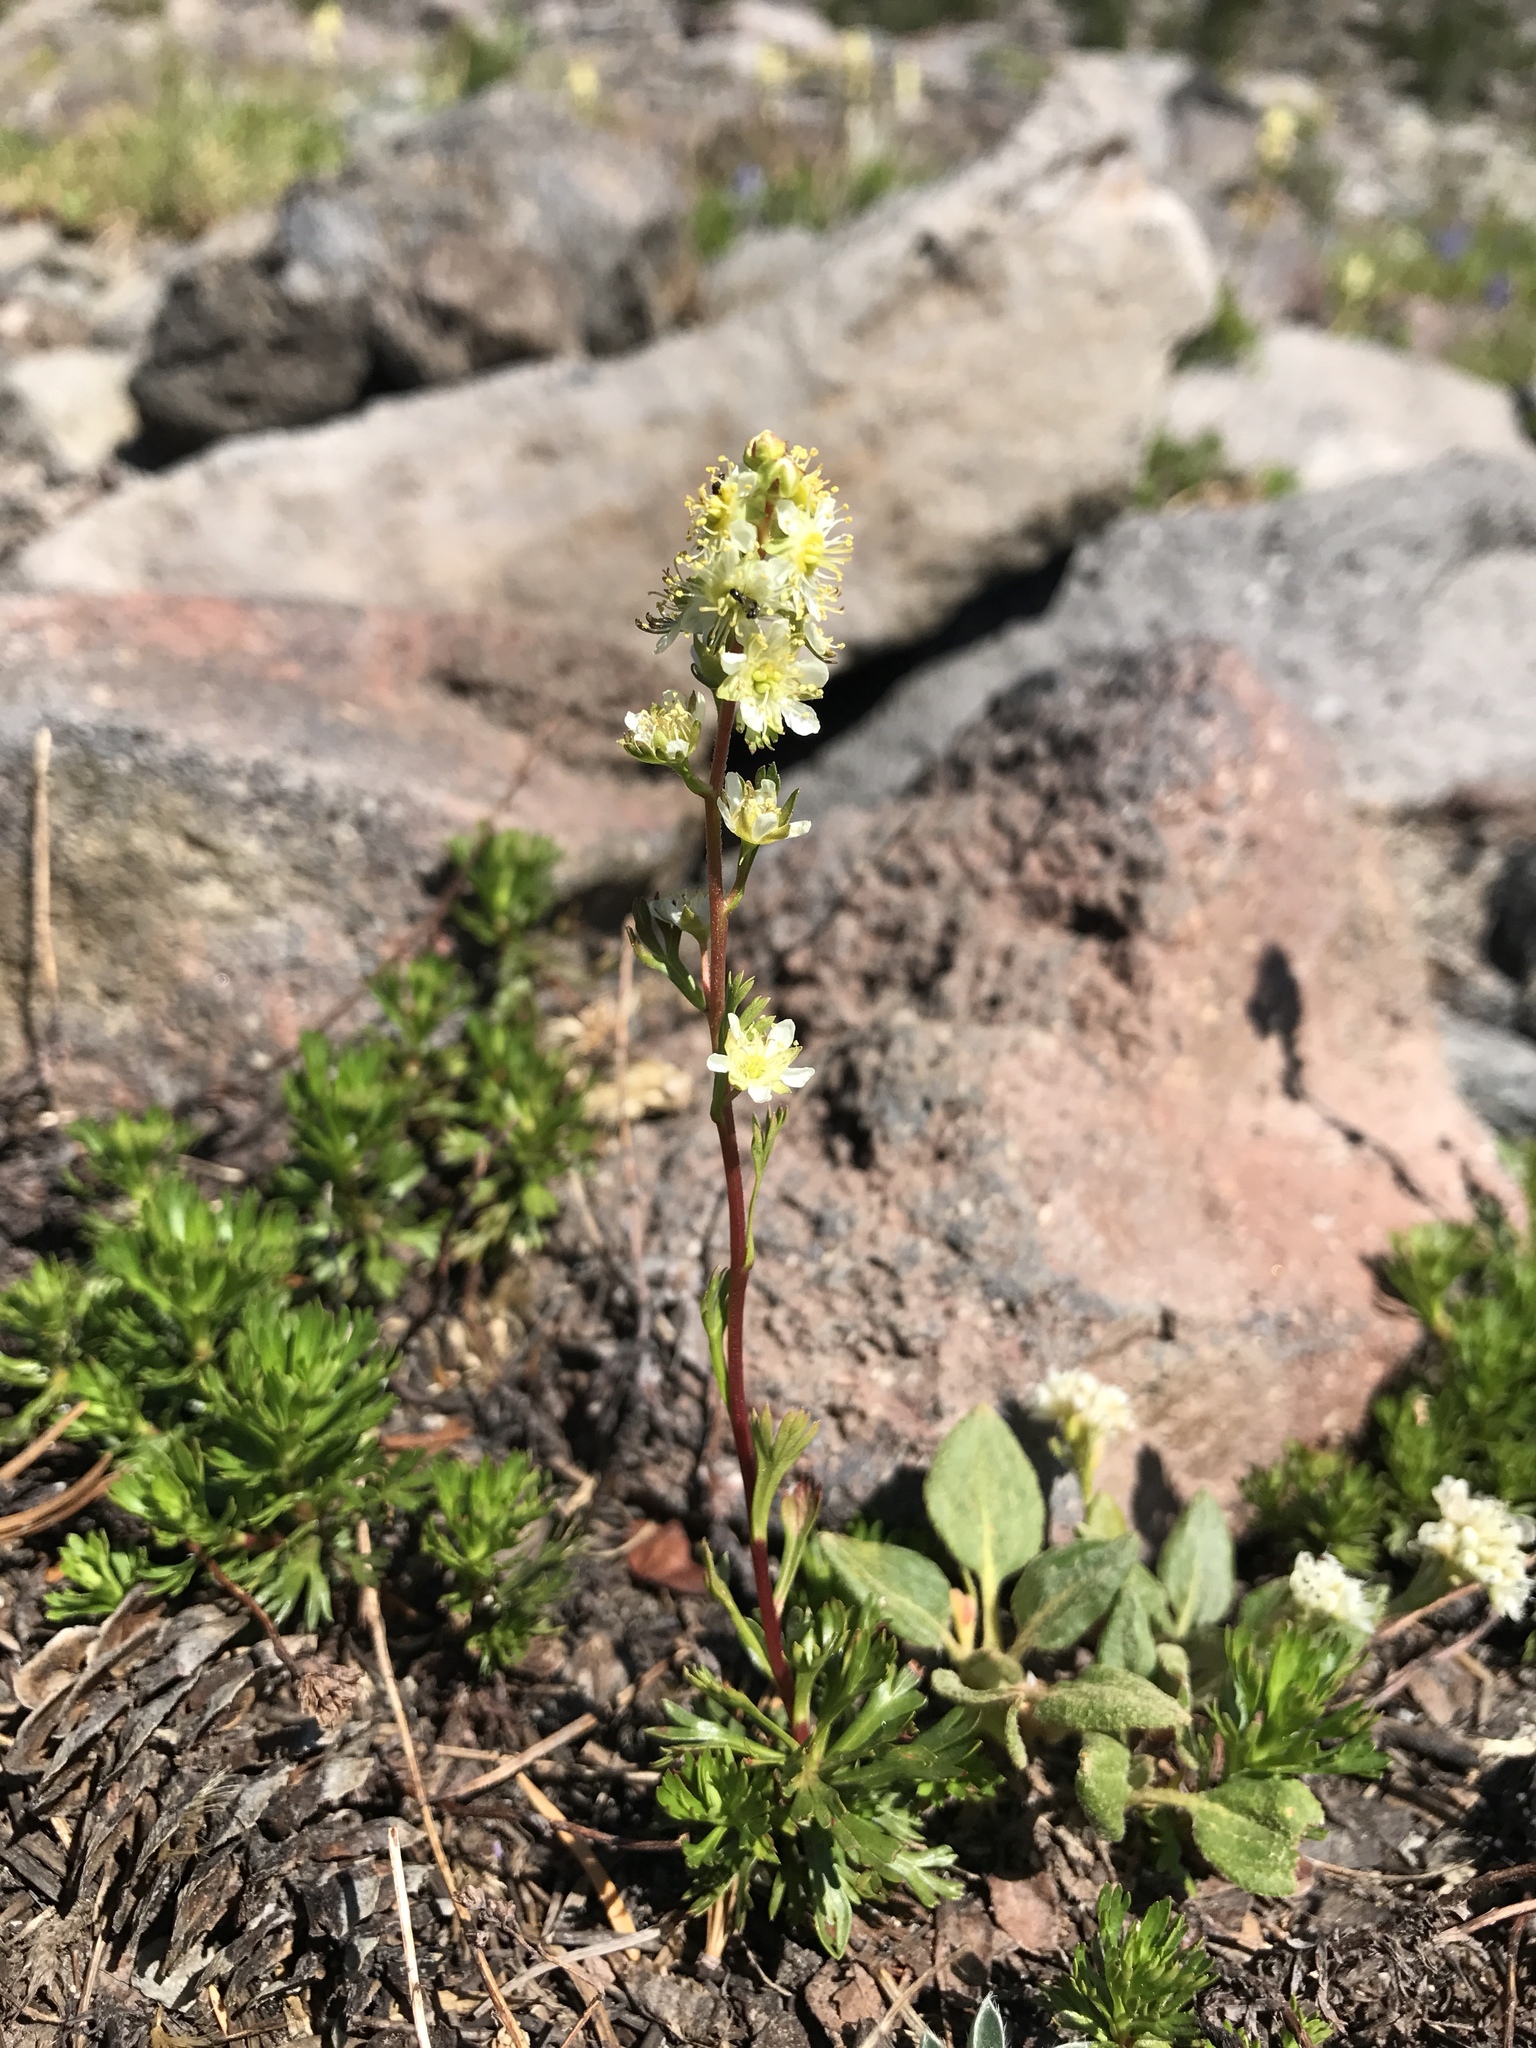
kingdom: Plantae
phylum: Tracheophyta
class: Magnoliopsida
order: Rosales
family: Rosaceae
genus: Luetkea
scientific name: Luetkea pectinata
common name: Partridgefoot
